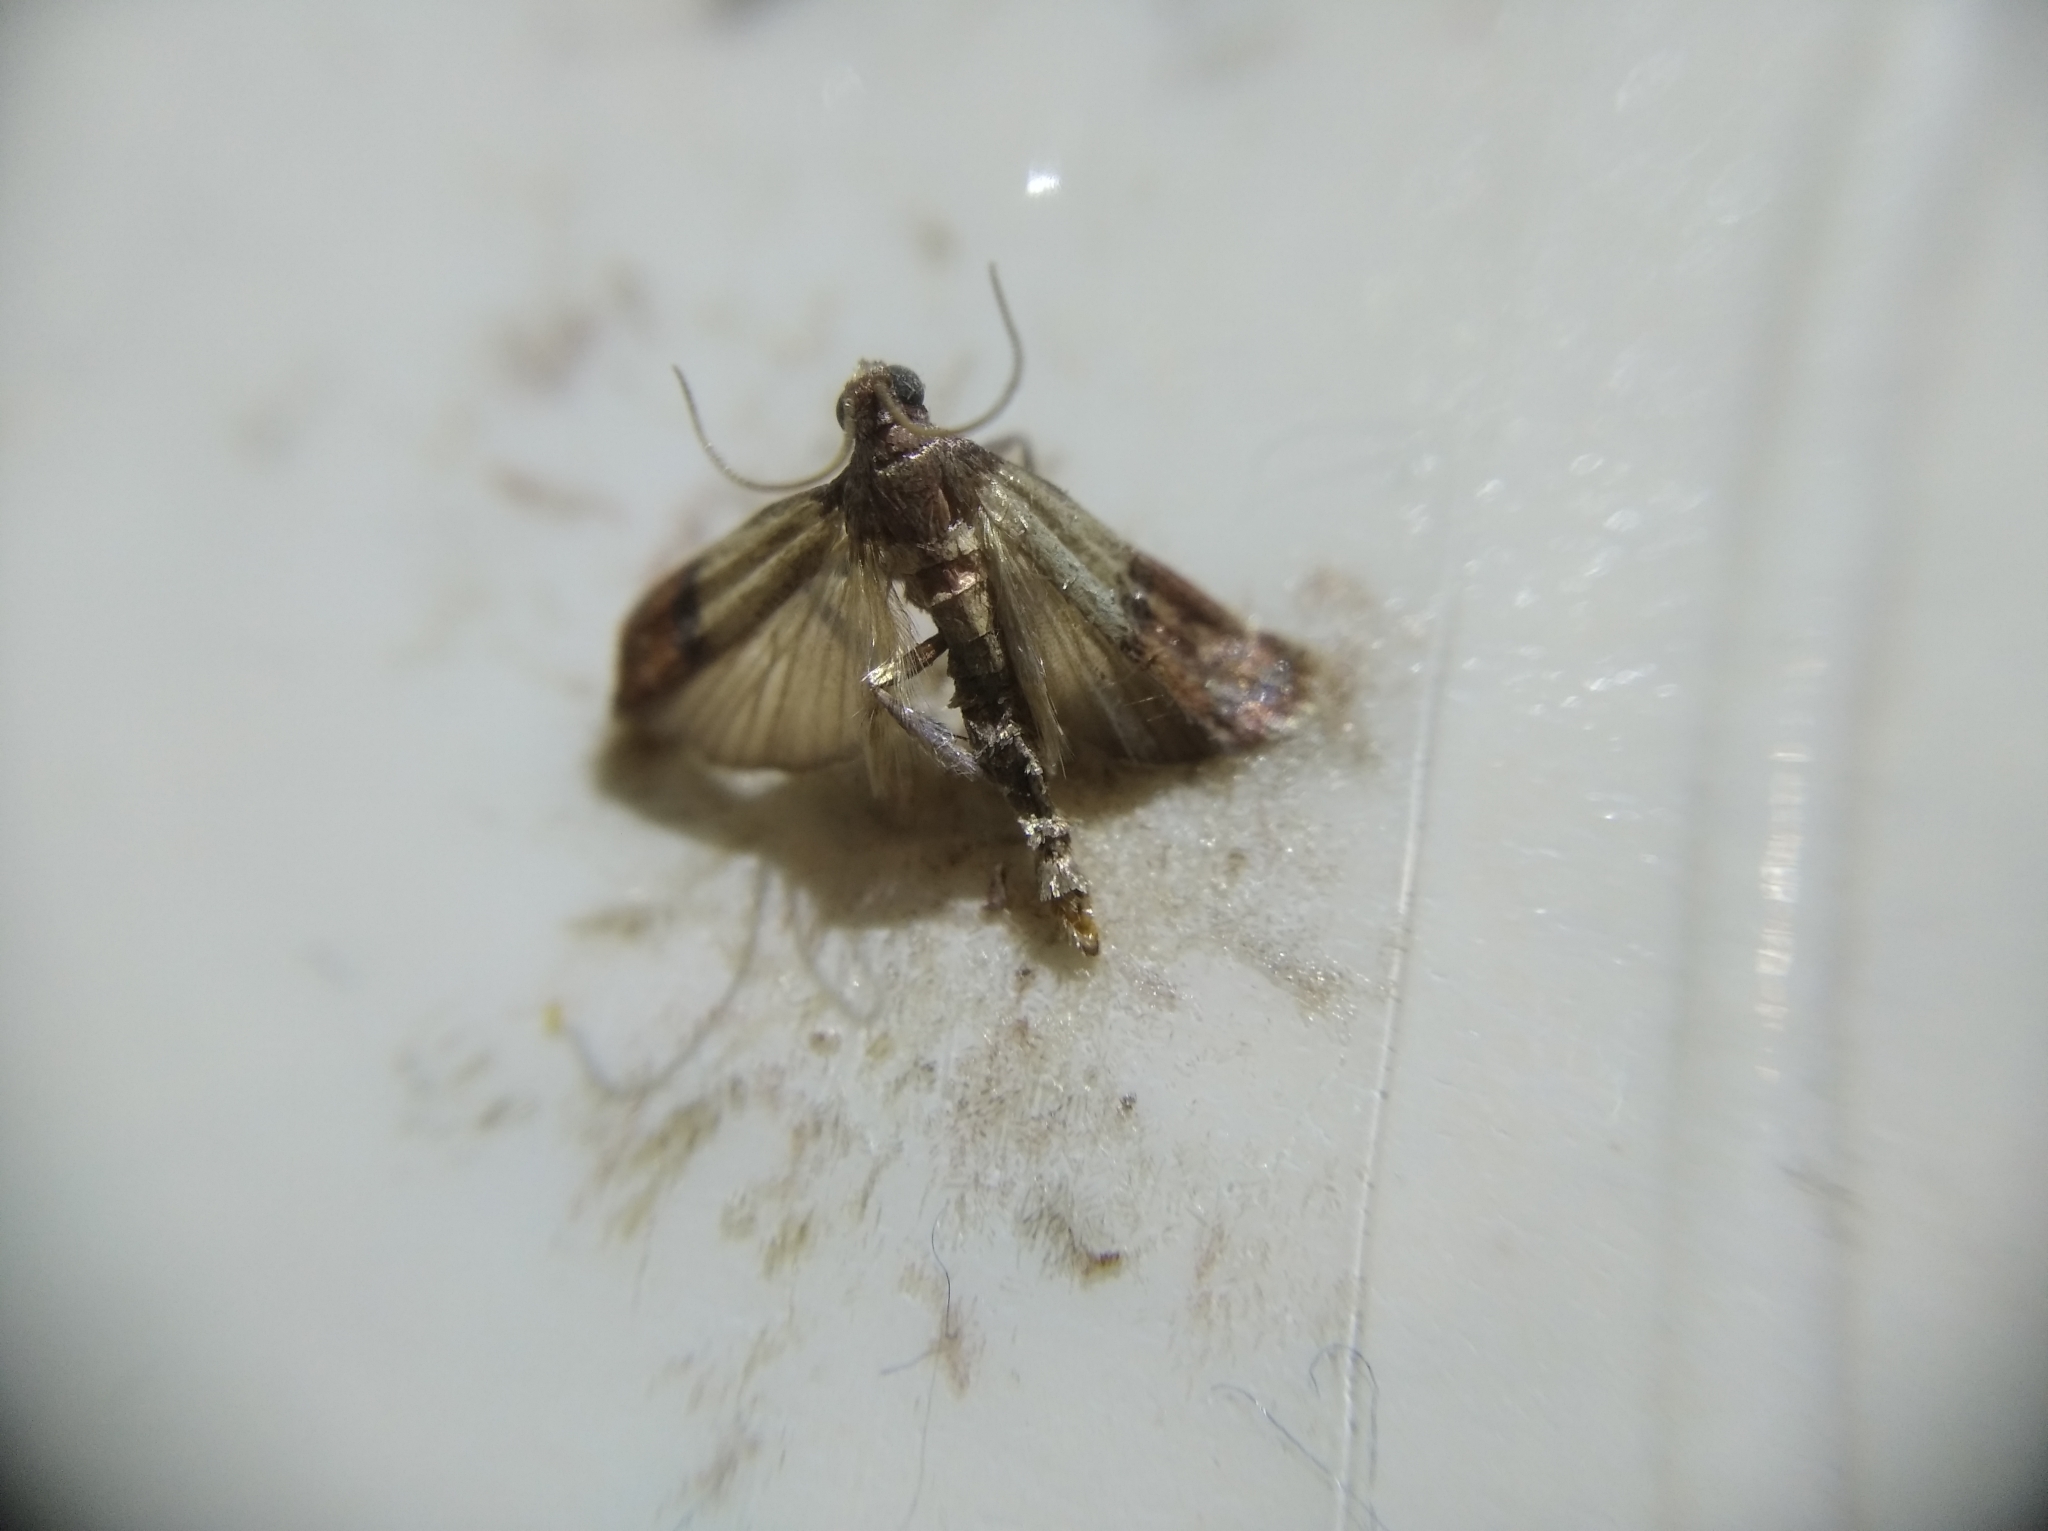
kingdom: Animalia
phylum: Arthropoda
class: Insecta
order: Lepidoptera
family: Pyralidae
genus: Plodia
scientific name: Plodia interpunctella
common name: Indian meal moth
